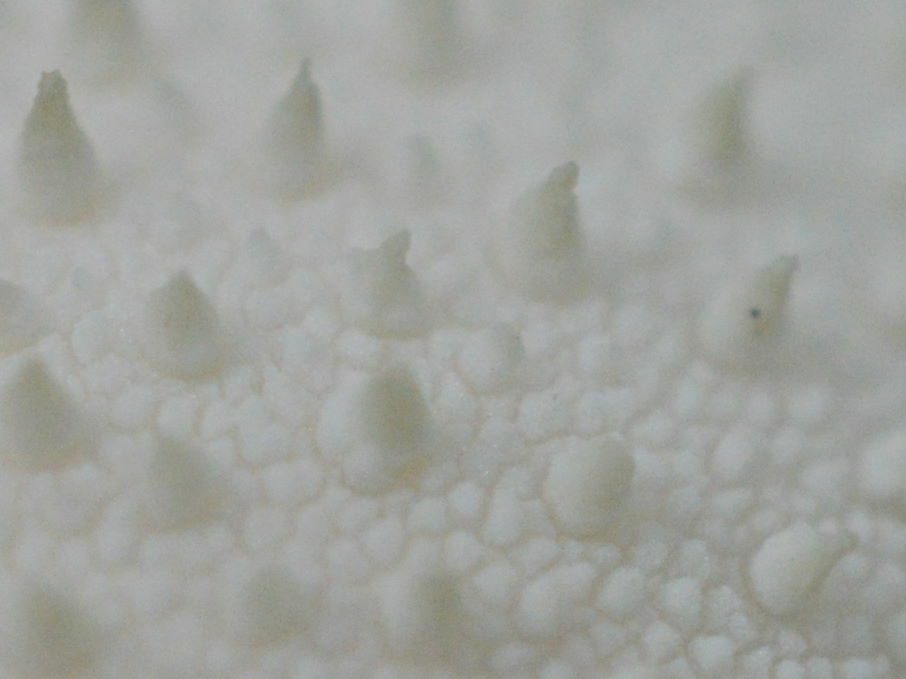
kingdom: Fungi
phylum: Basidiomycota
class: Agaricomycetes
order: Agaricales
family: Lycoperdaceae
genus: Lycoperdon
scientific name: Lycoperdon perlatum
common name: Common puffball
